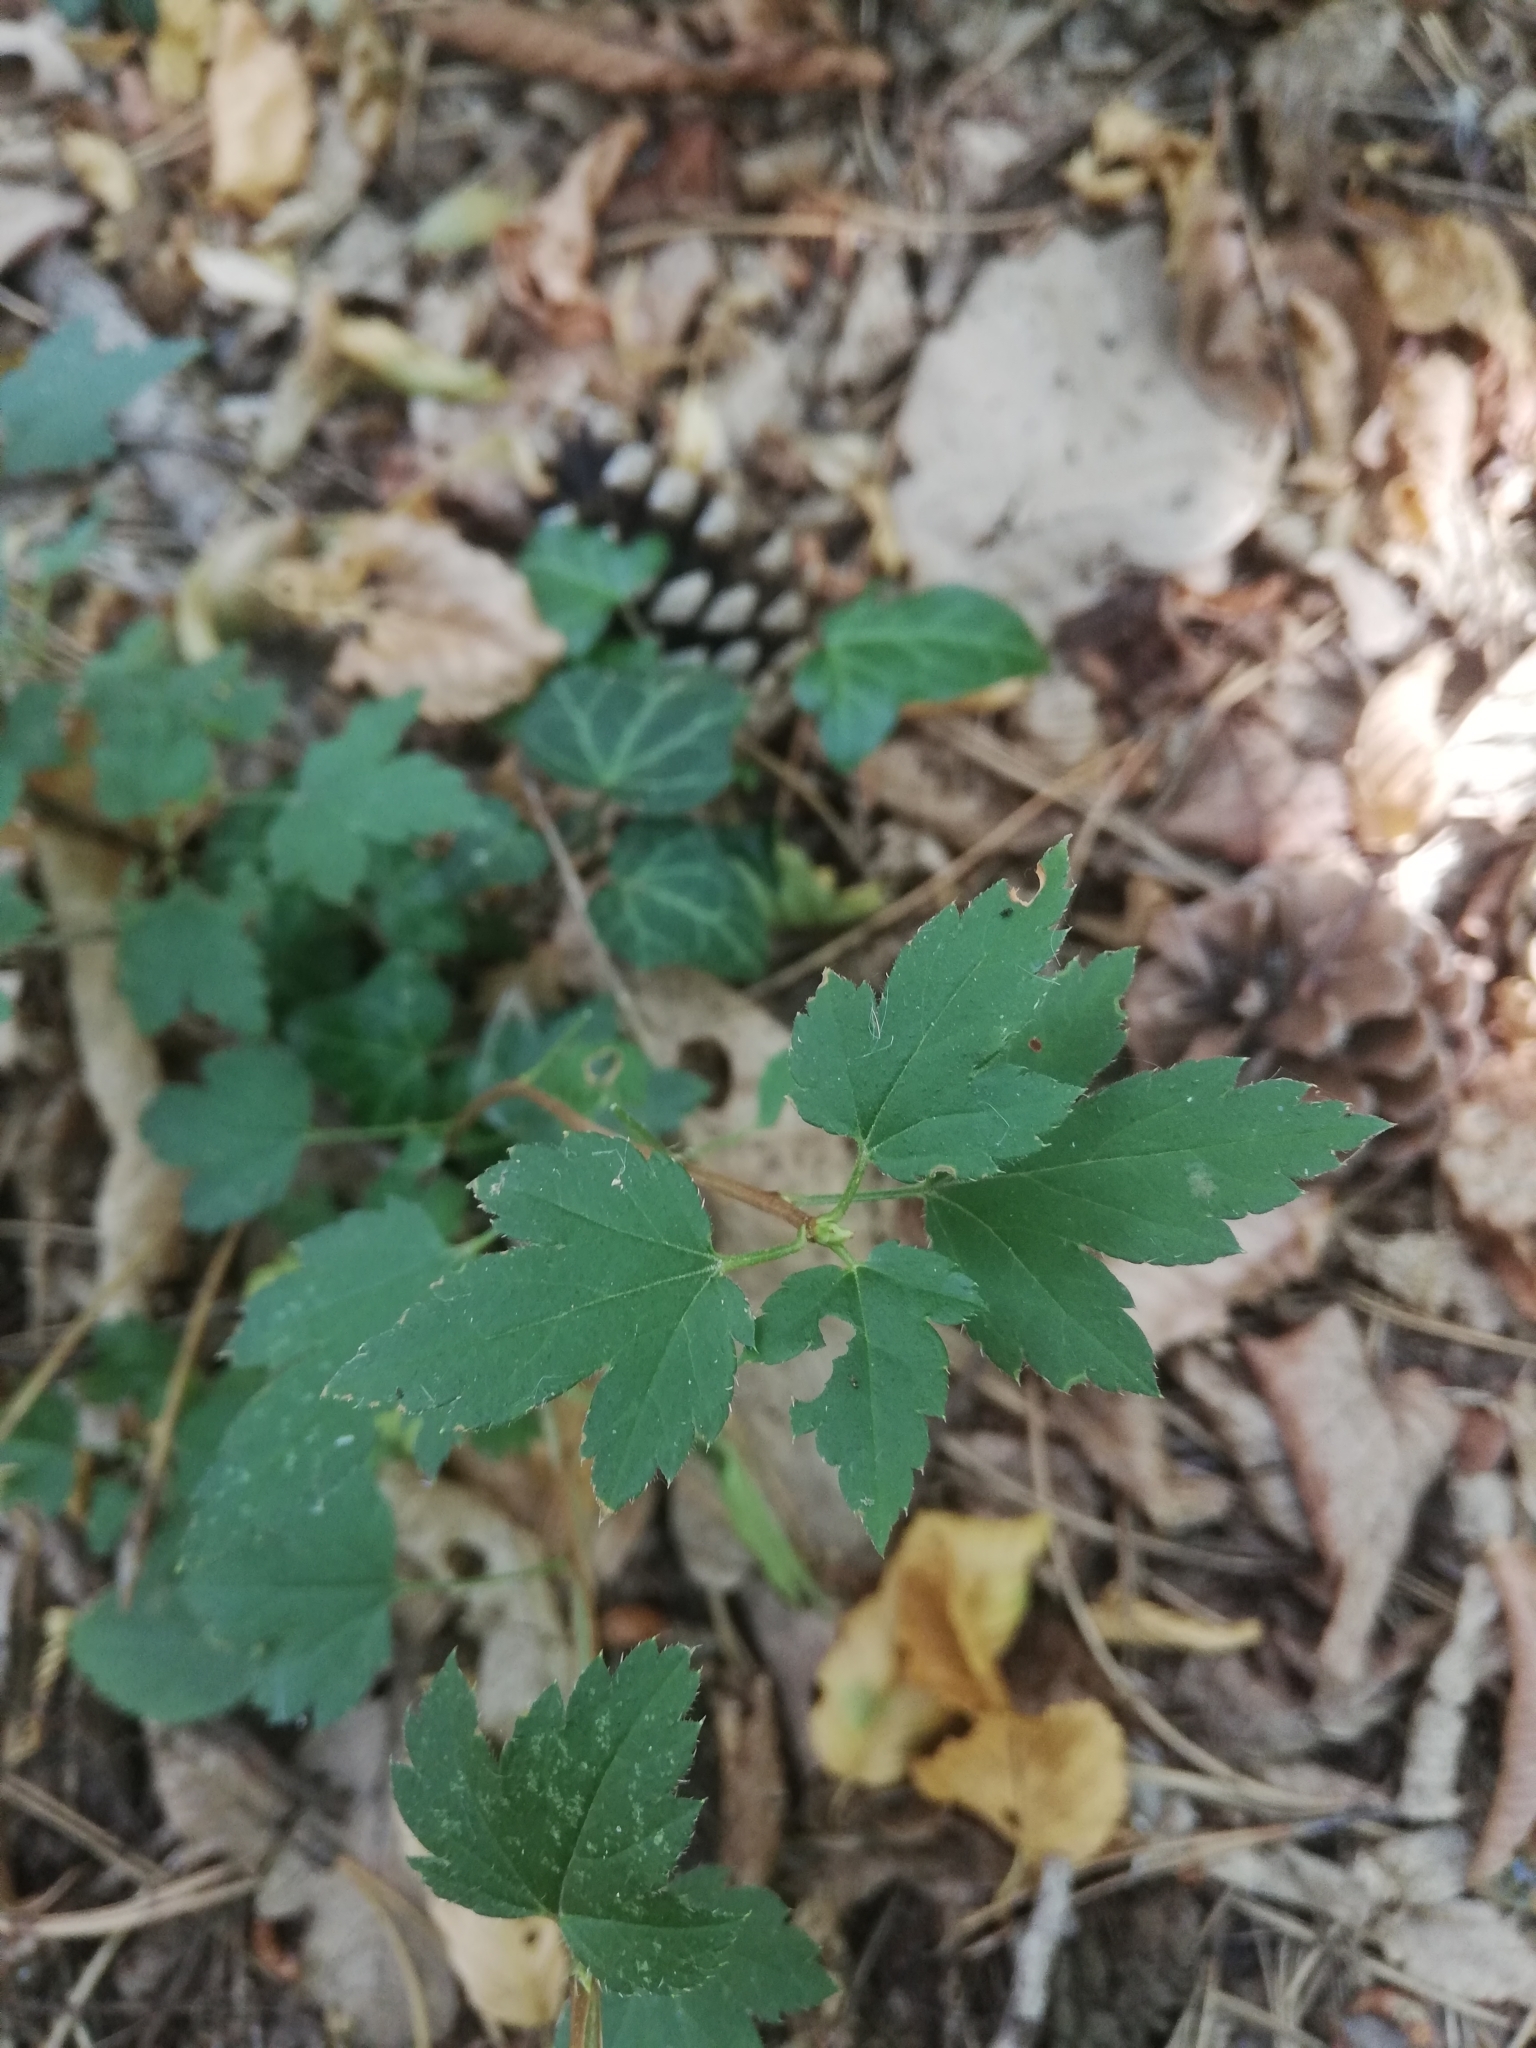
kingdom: Plantae
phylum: Tracheophyta
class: Magnoliopsida
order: Saxifragales
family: Grossulariaceae
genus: Ribes
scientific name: Ribes rubrum
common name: Red currant
